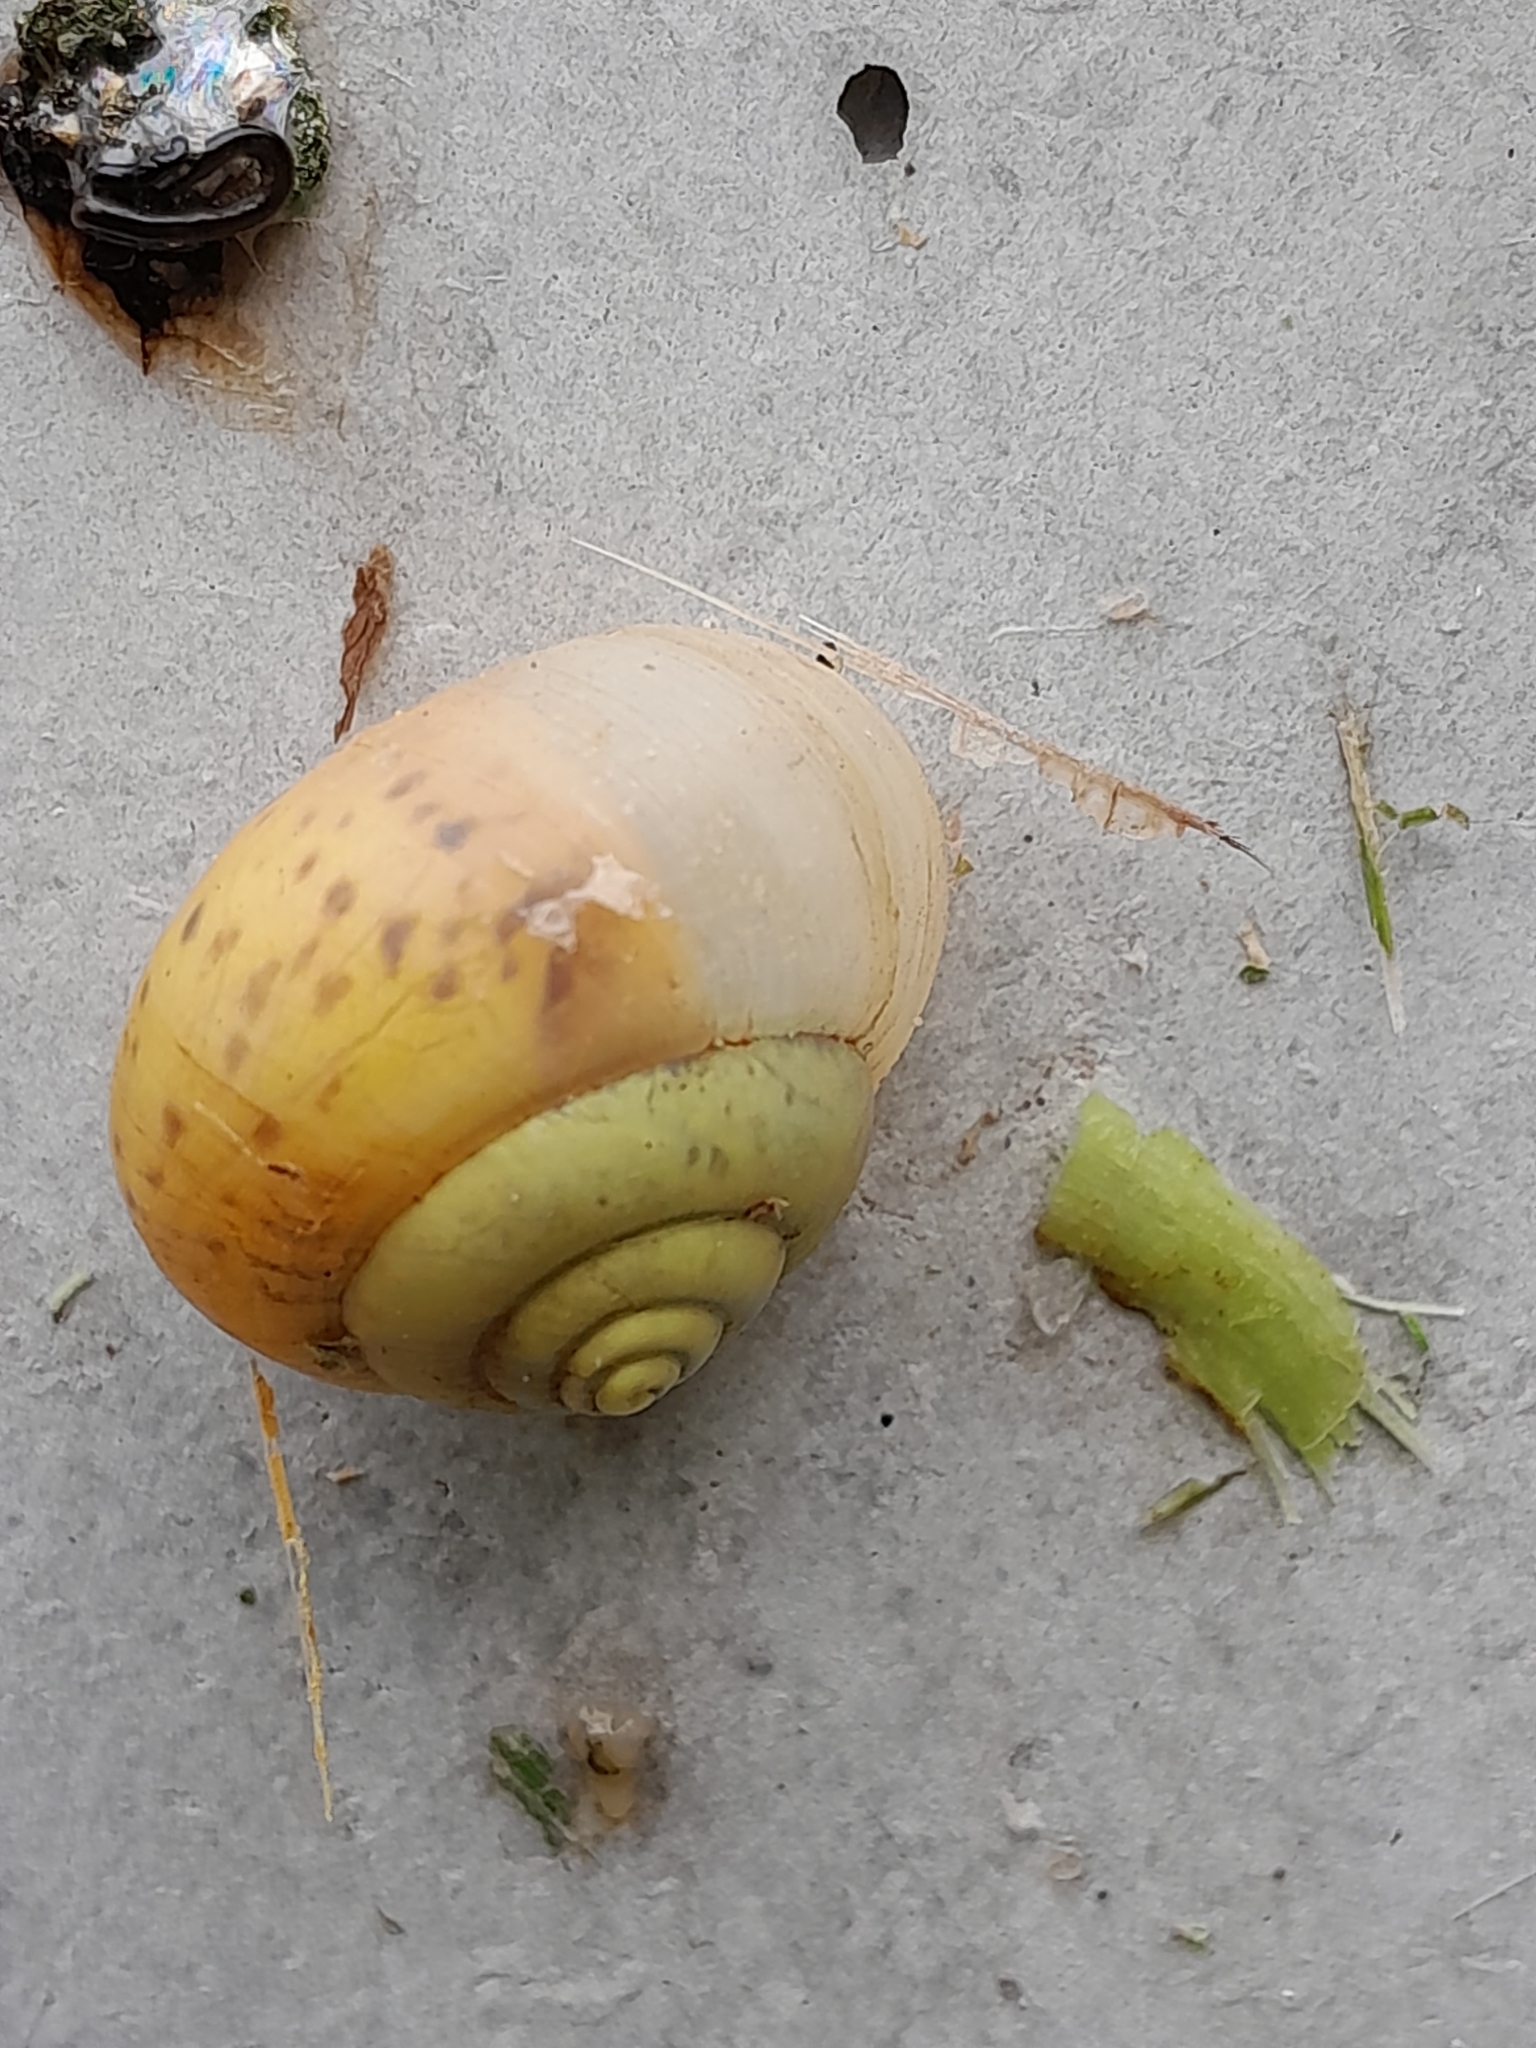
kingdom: Animalia
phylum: Mollusca
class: Gastropoda
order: Stylommatophora
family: Camaenidae
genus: Fruticicola
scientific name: Fruticicola fruticum
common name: Bush snail
